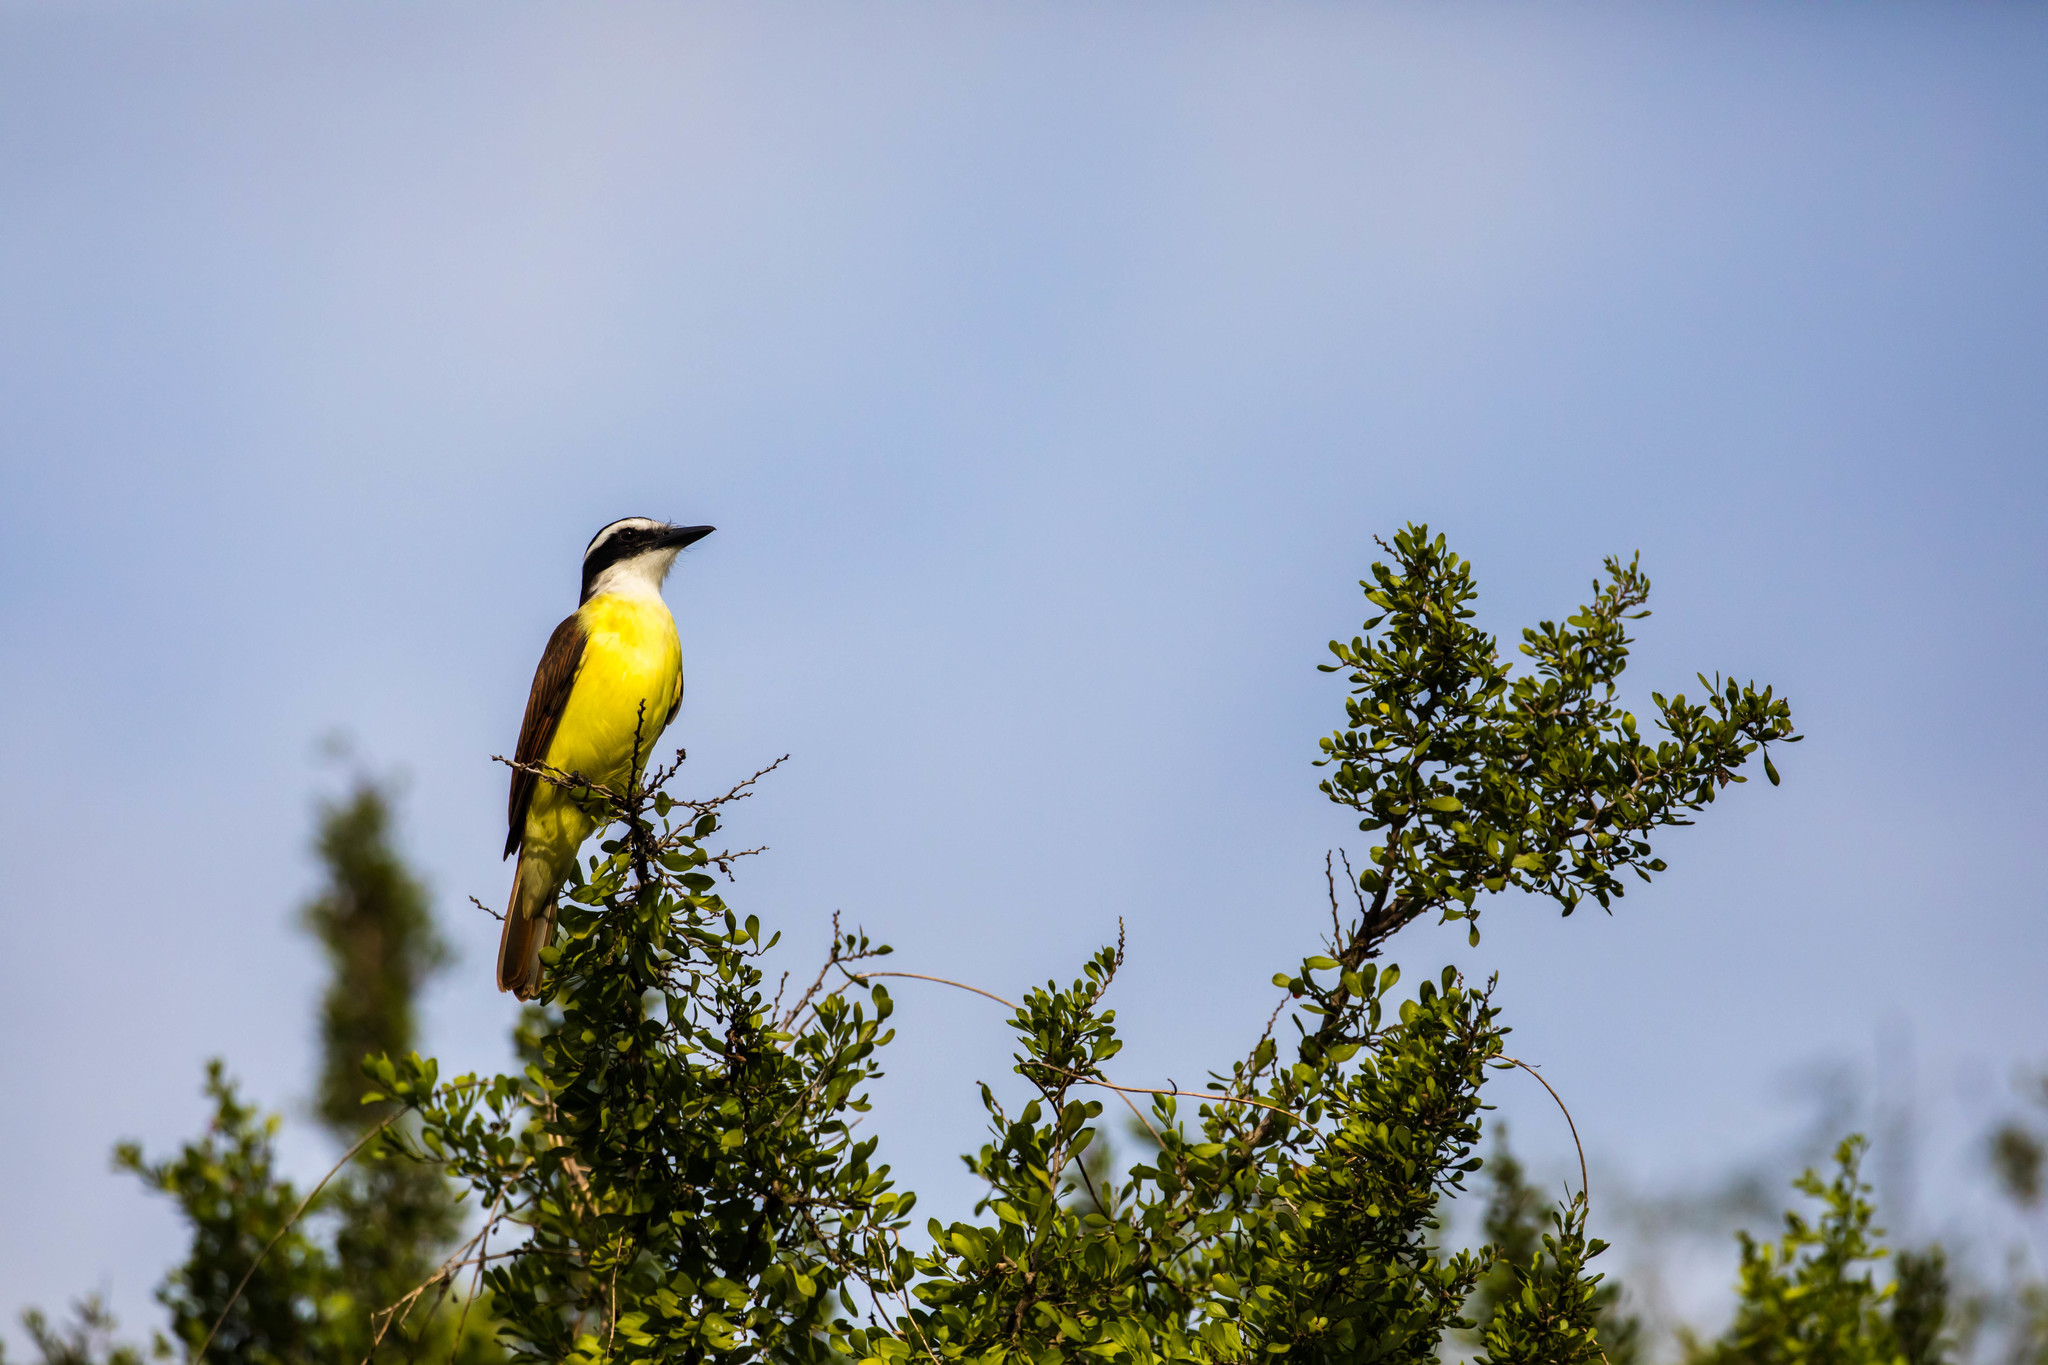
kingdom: Animalia
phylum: Chordata
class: Aves
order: Passeriformes
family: Tyrannidae
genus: Pitangus
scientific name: Pitangus sulphuratus
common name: Great kiskadee
